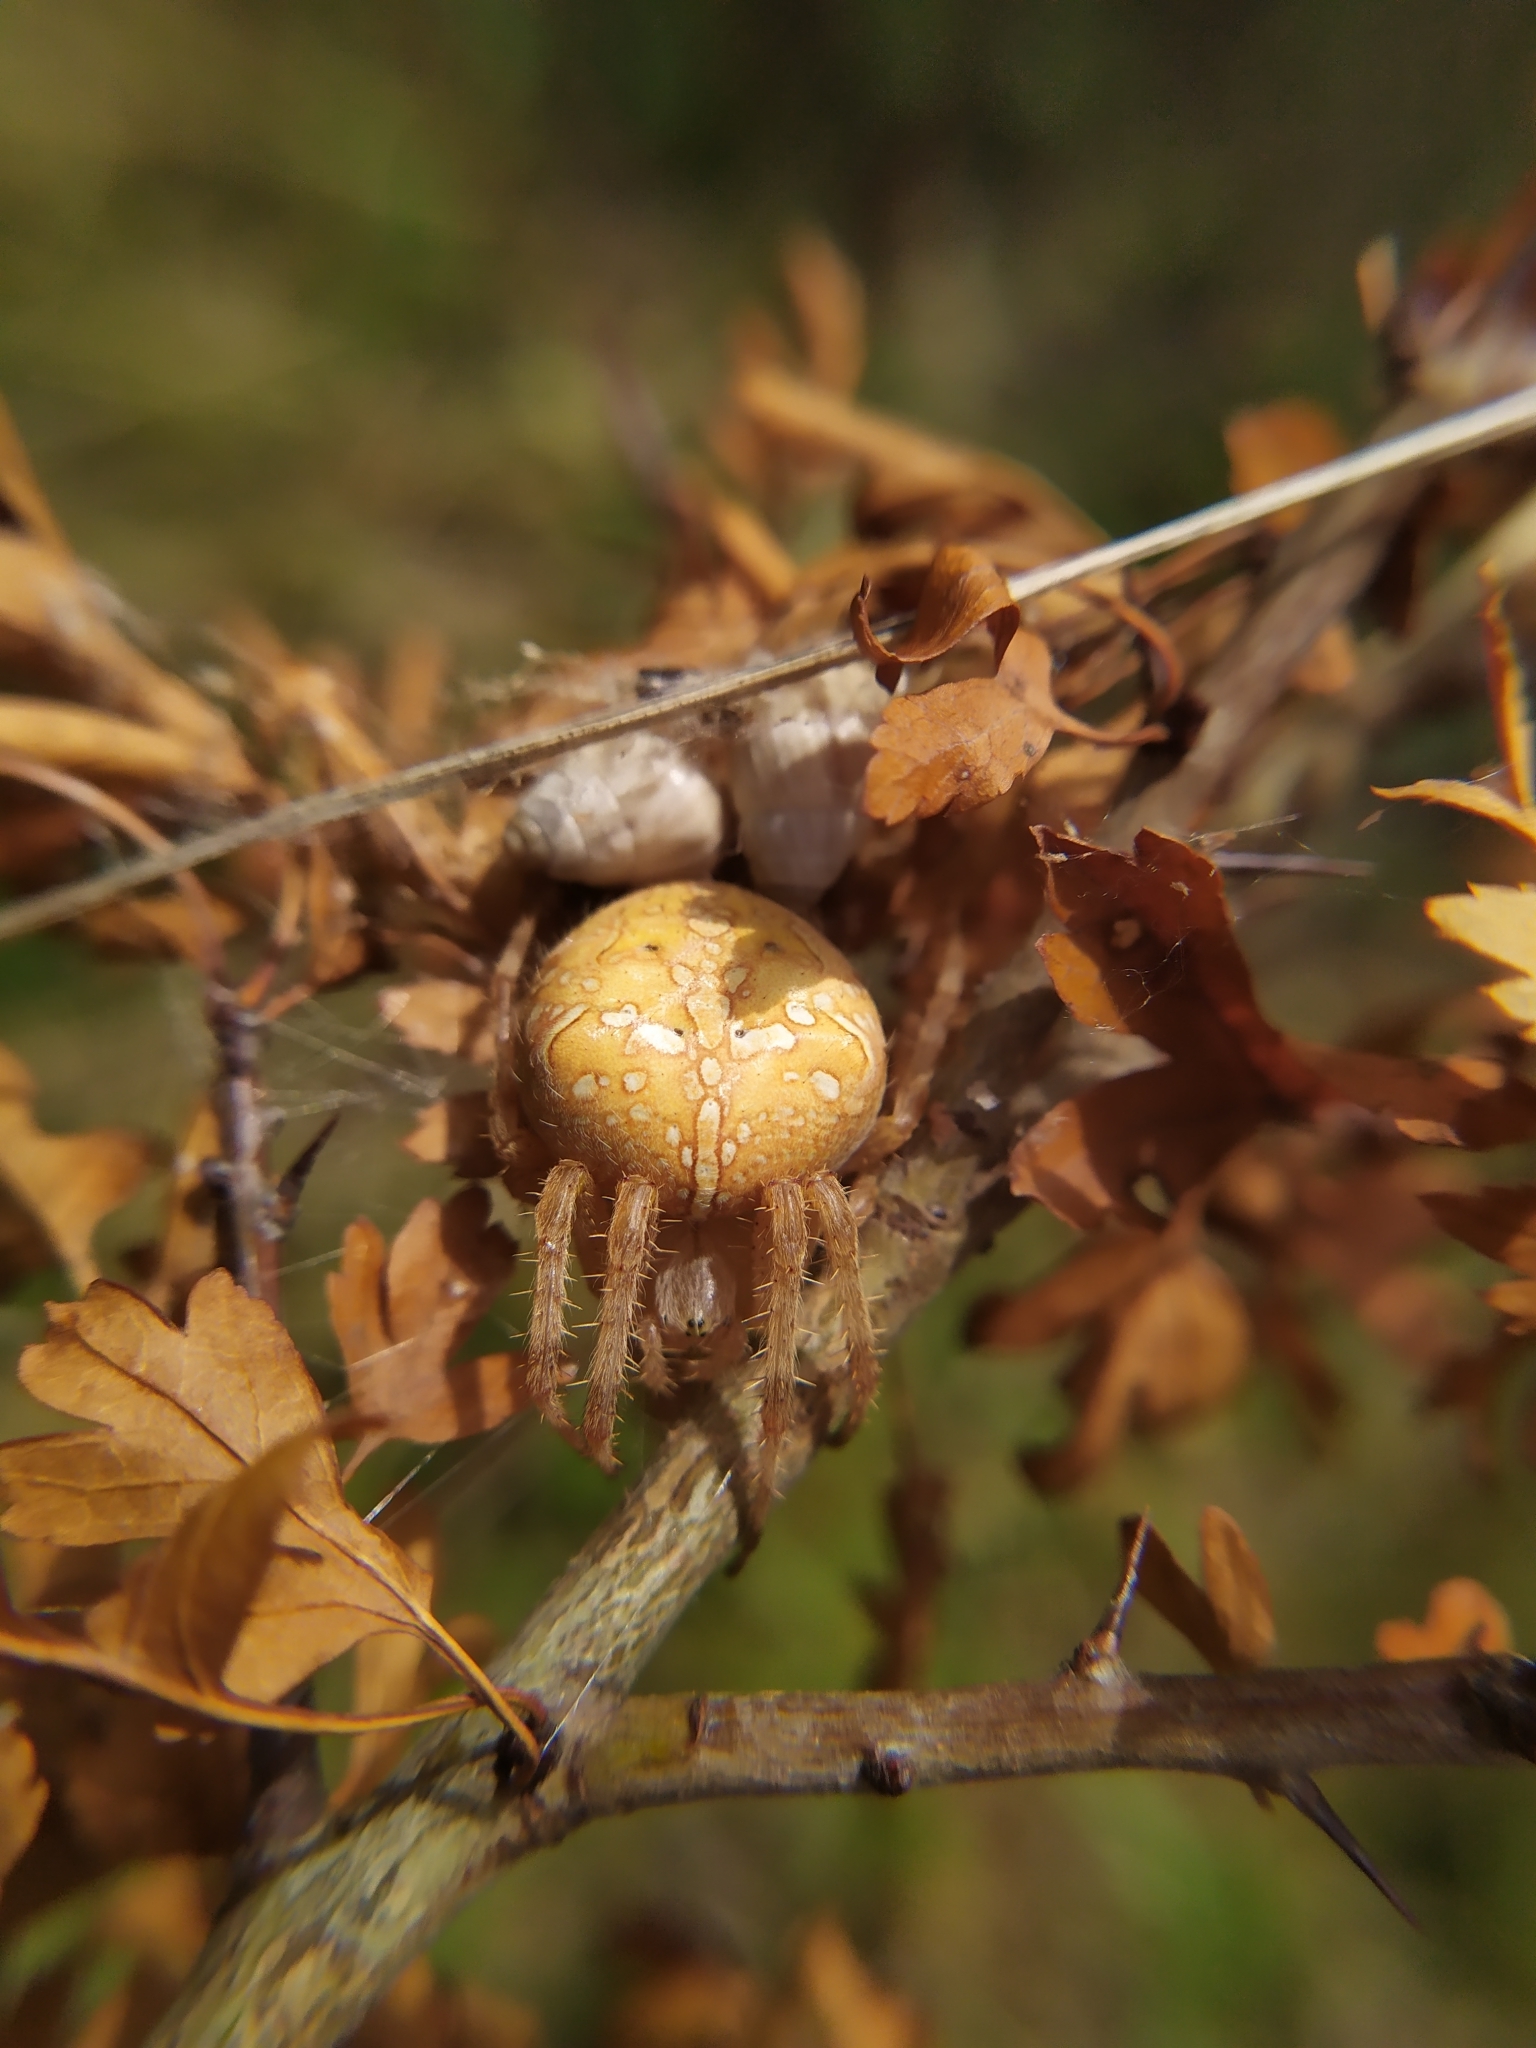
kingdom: Animalia
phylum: Arthropoda
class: Arachnida
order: Araneae
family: Araneidae
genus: Araneus
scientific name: Araneus diadematus
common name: Cross orbweaver
